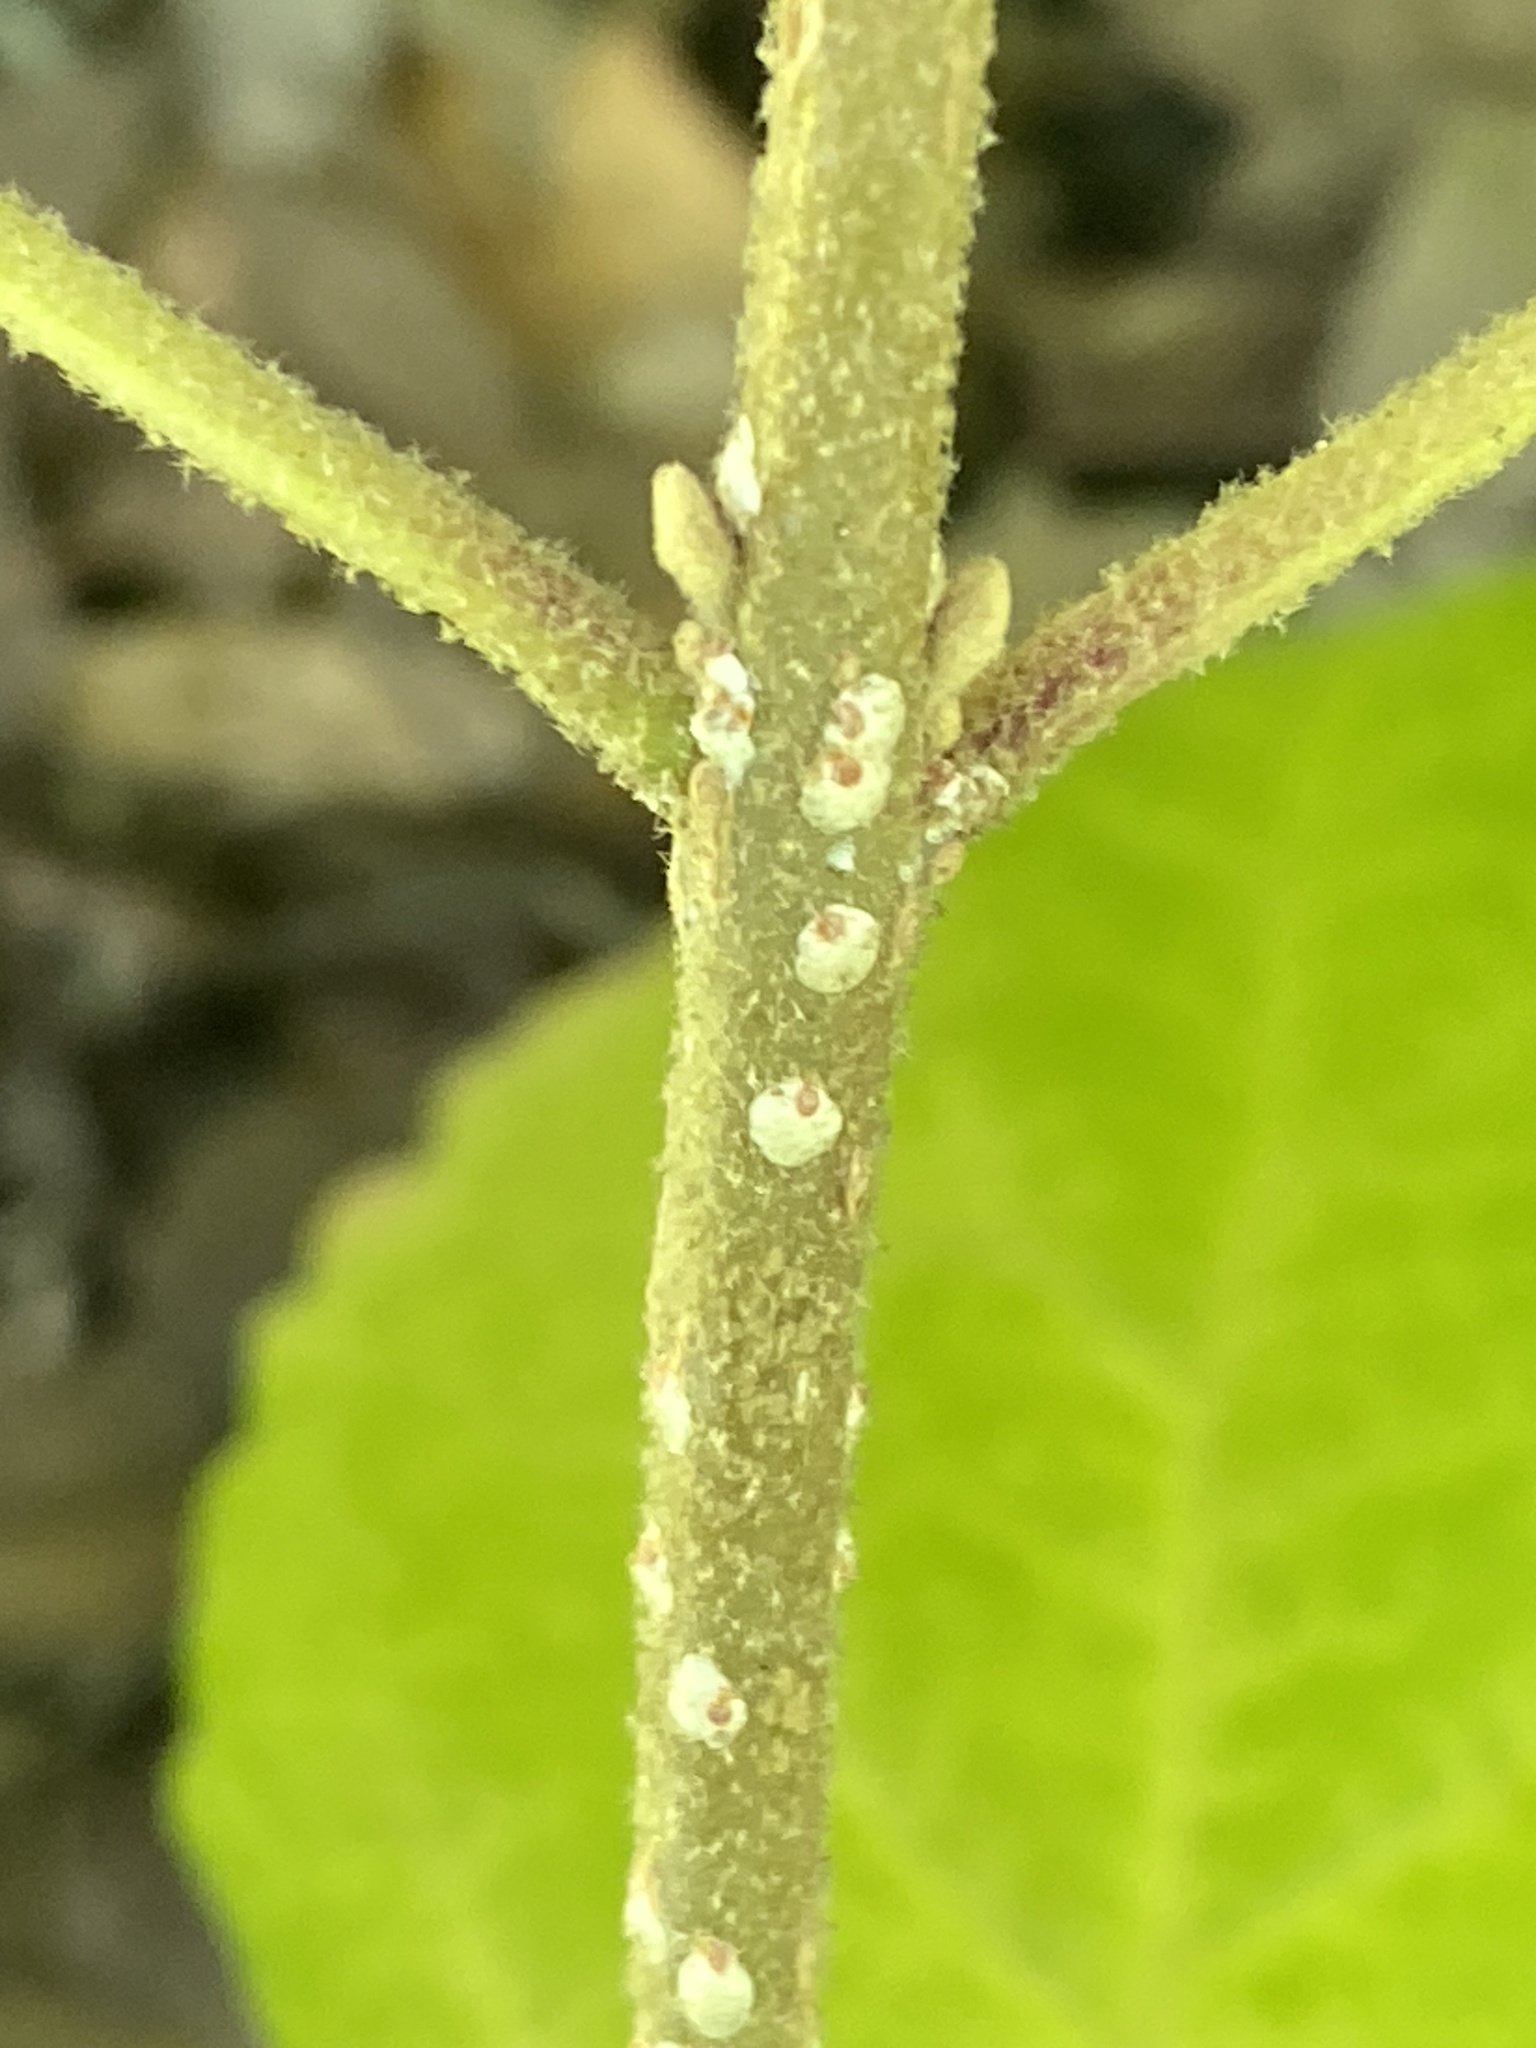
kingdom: Animalia
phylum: Arthropoda
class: Insecta
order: Hemiptera
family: Diaspididae
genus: Pseudaulacaspis
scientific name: Pseudaulacaspis pentagona
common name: White peach scale
